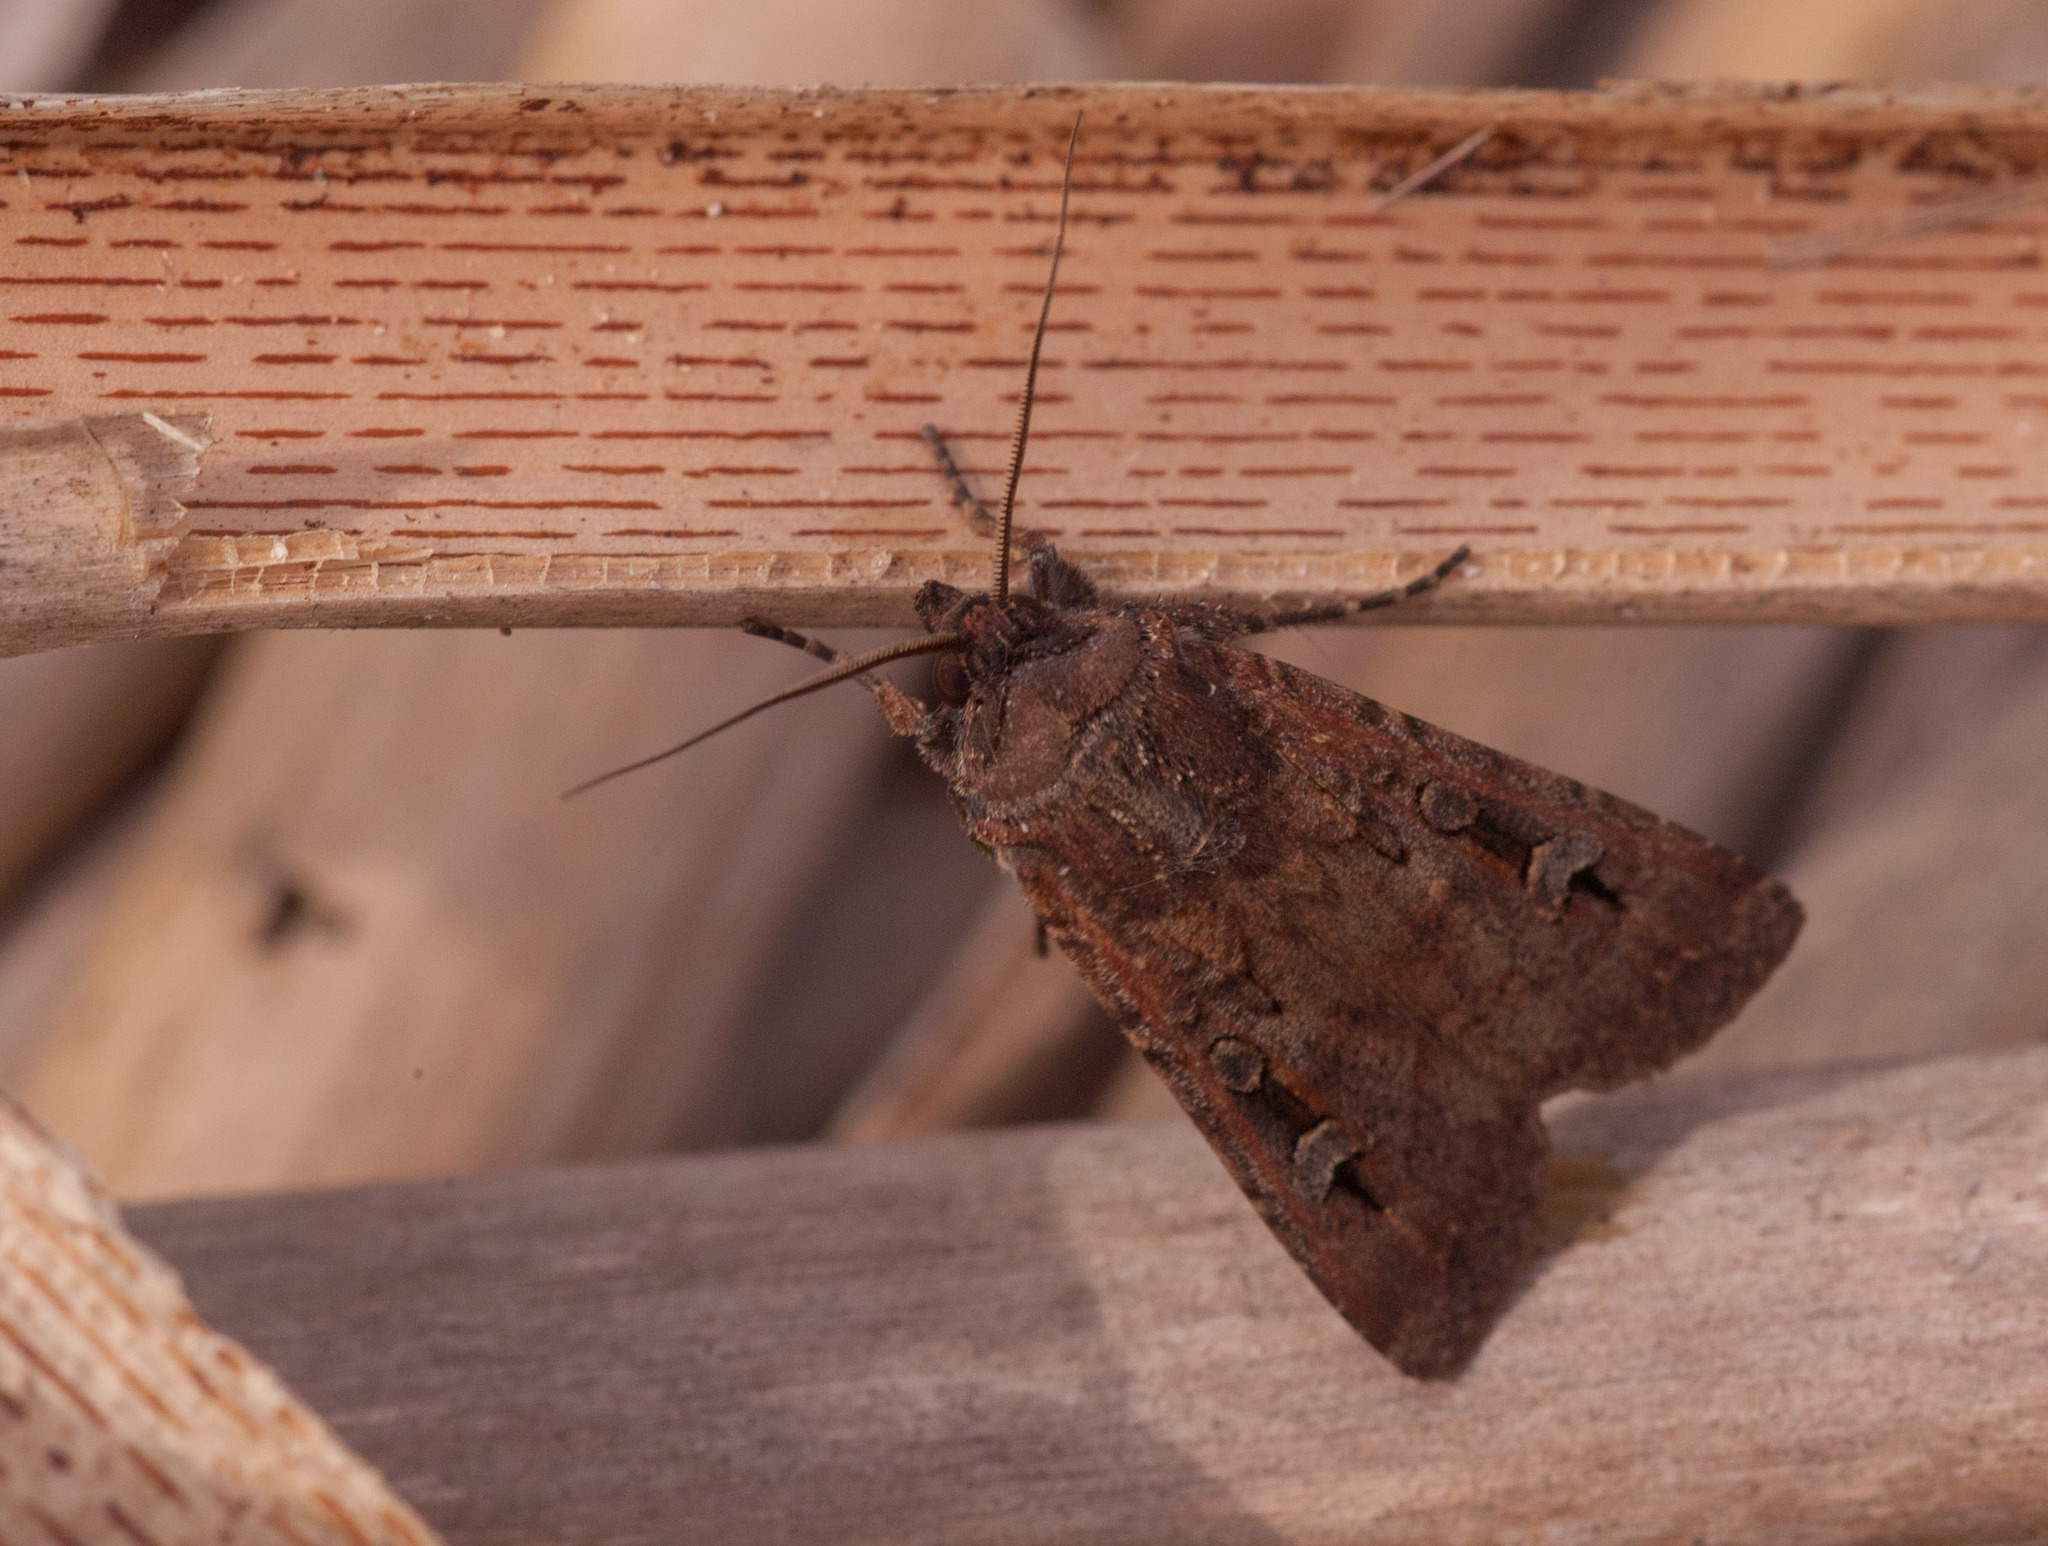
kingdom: Animalia
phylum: Arthropoda
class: Insecta
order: Lepidoptera
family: Noctuidae
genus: Agrotis
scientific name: Agrotis infusa
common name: Bogong moth
